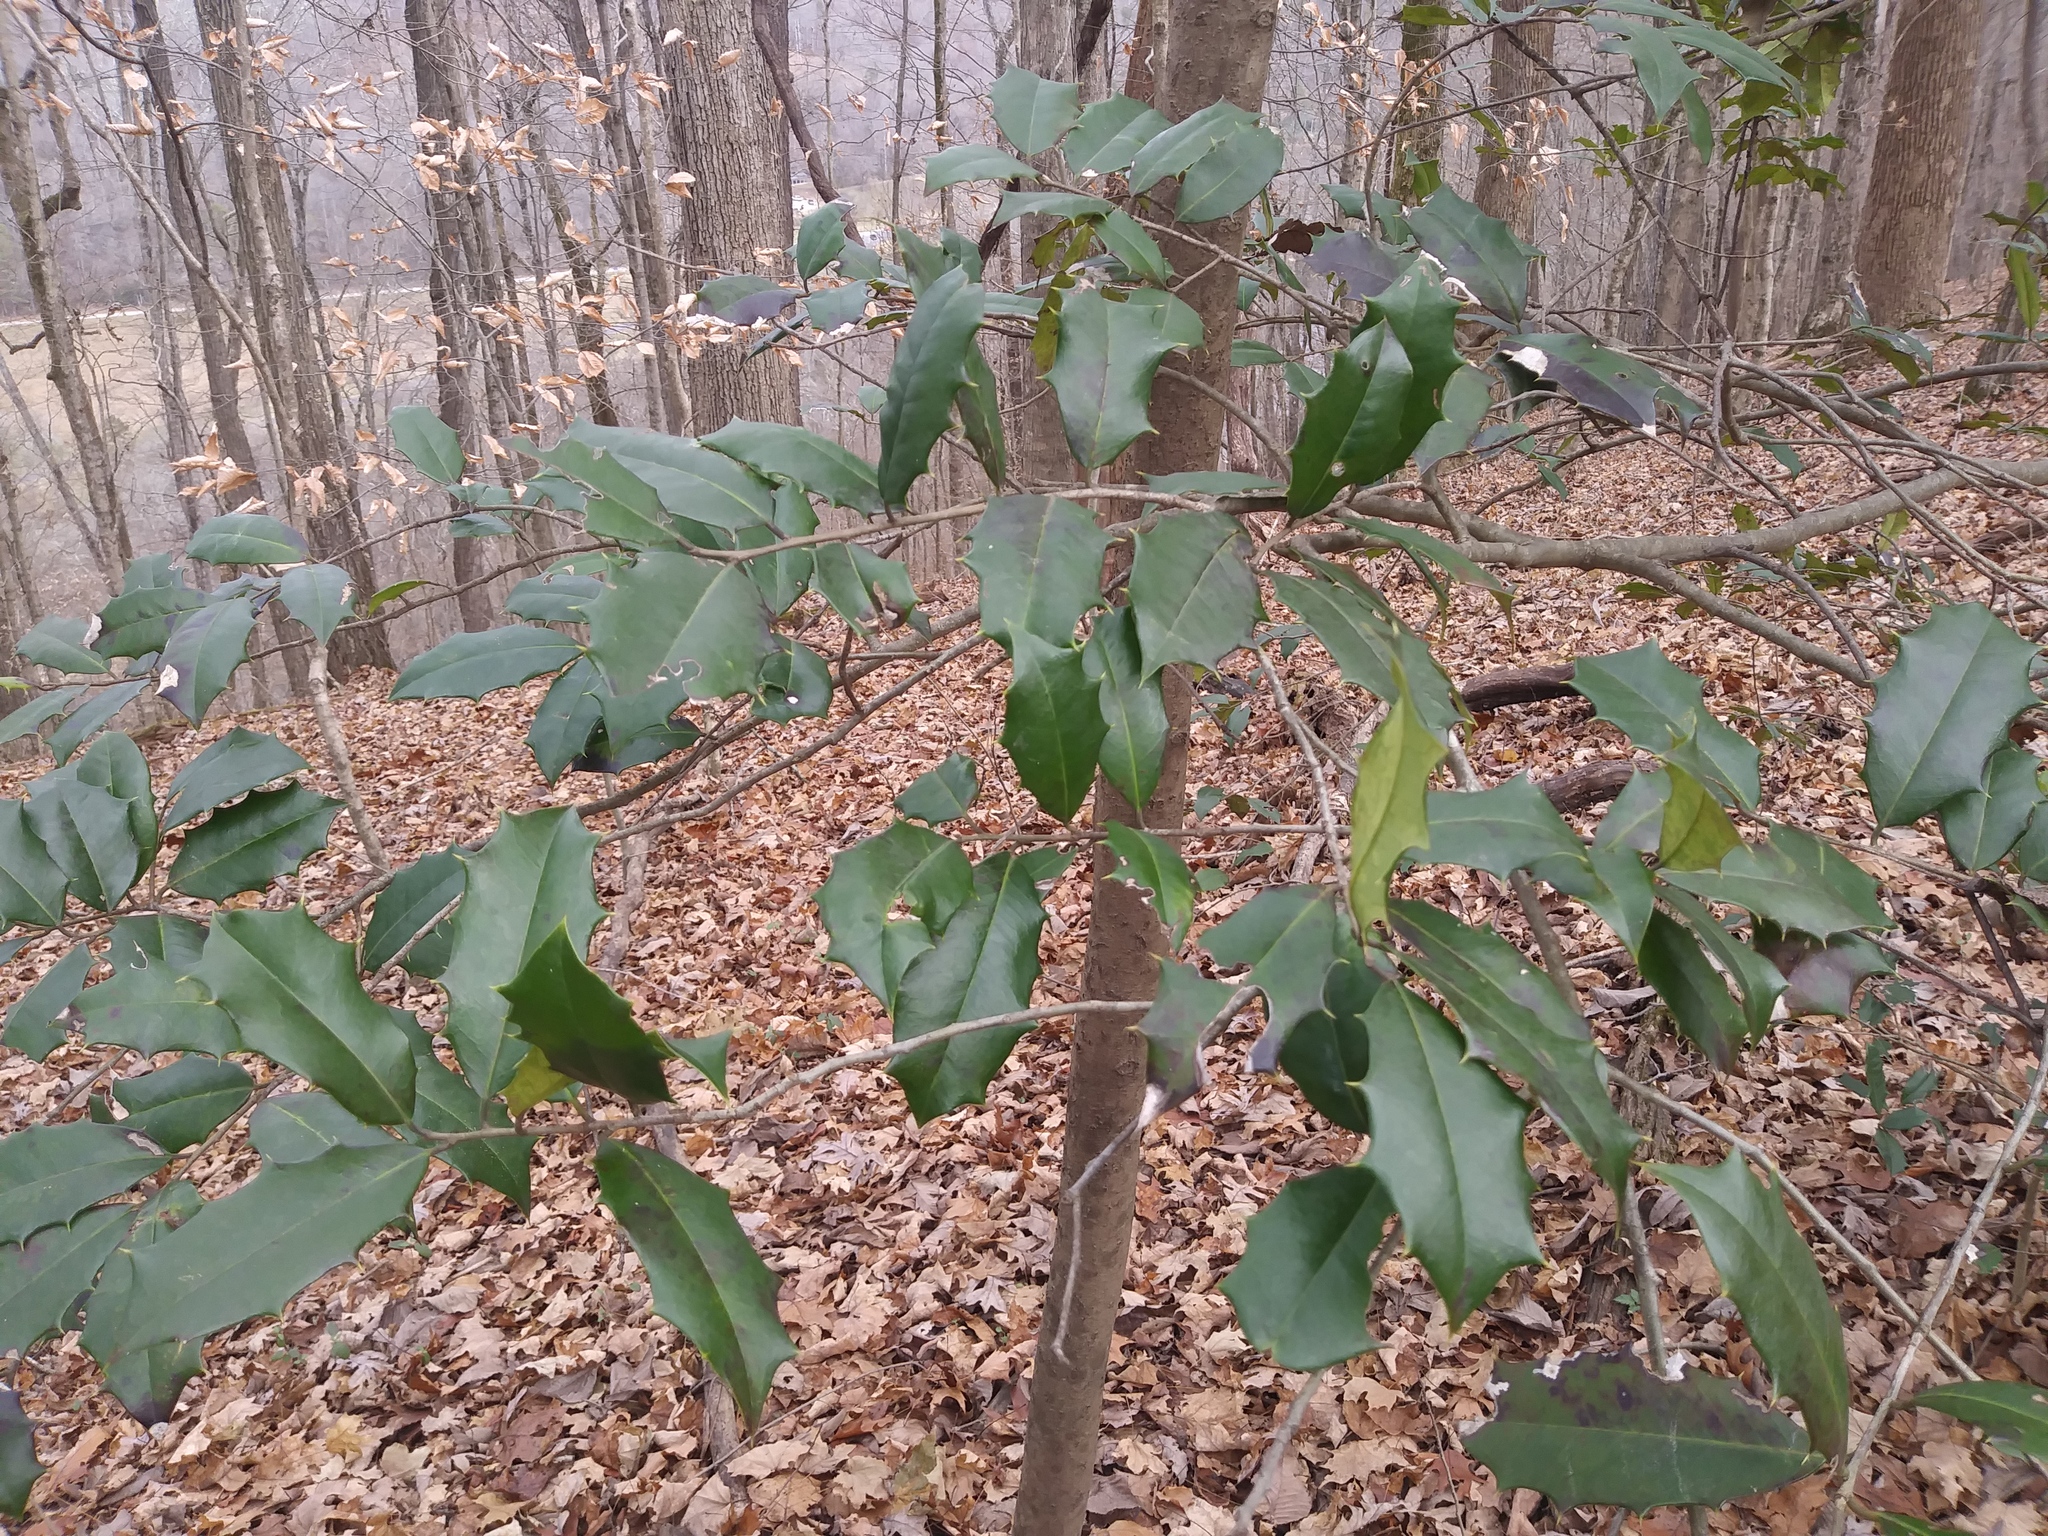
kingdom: Plantae
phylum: Tracheophyta
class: Magnoliopsida
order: Aquifoliales
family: Aquifoliaceae
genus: Ilex
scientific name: Ilex opaca
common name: American holly
